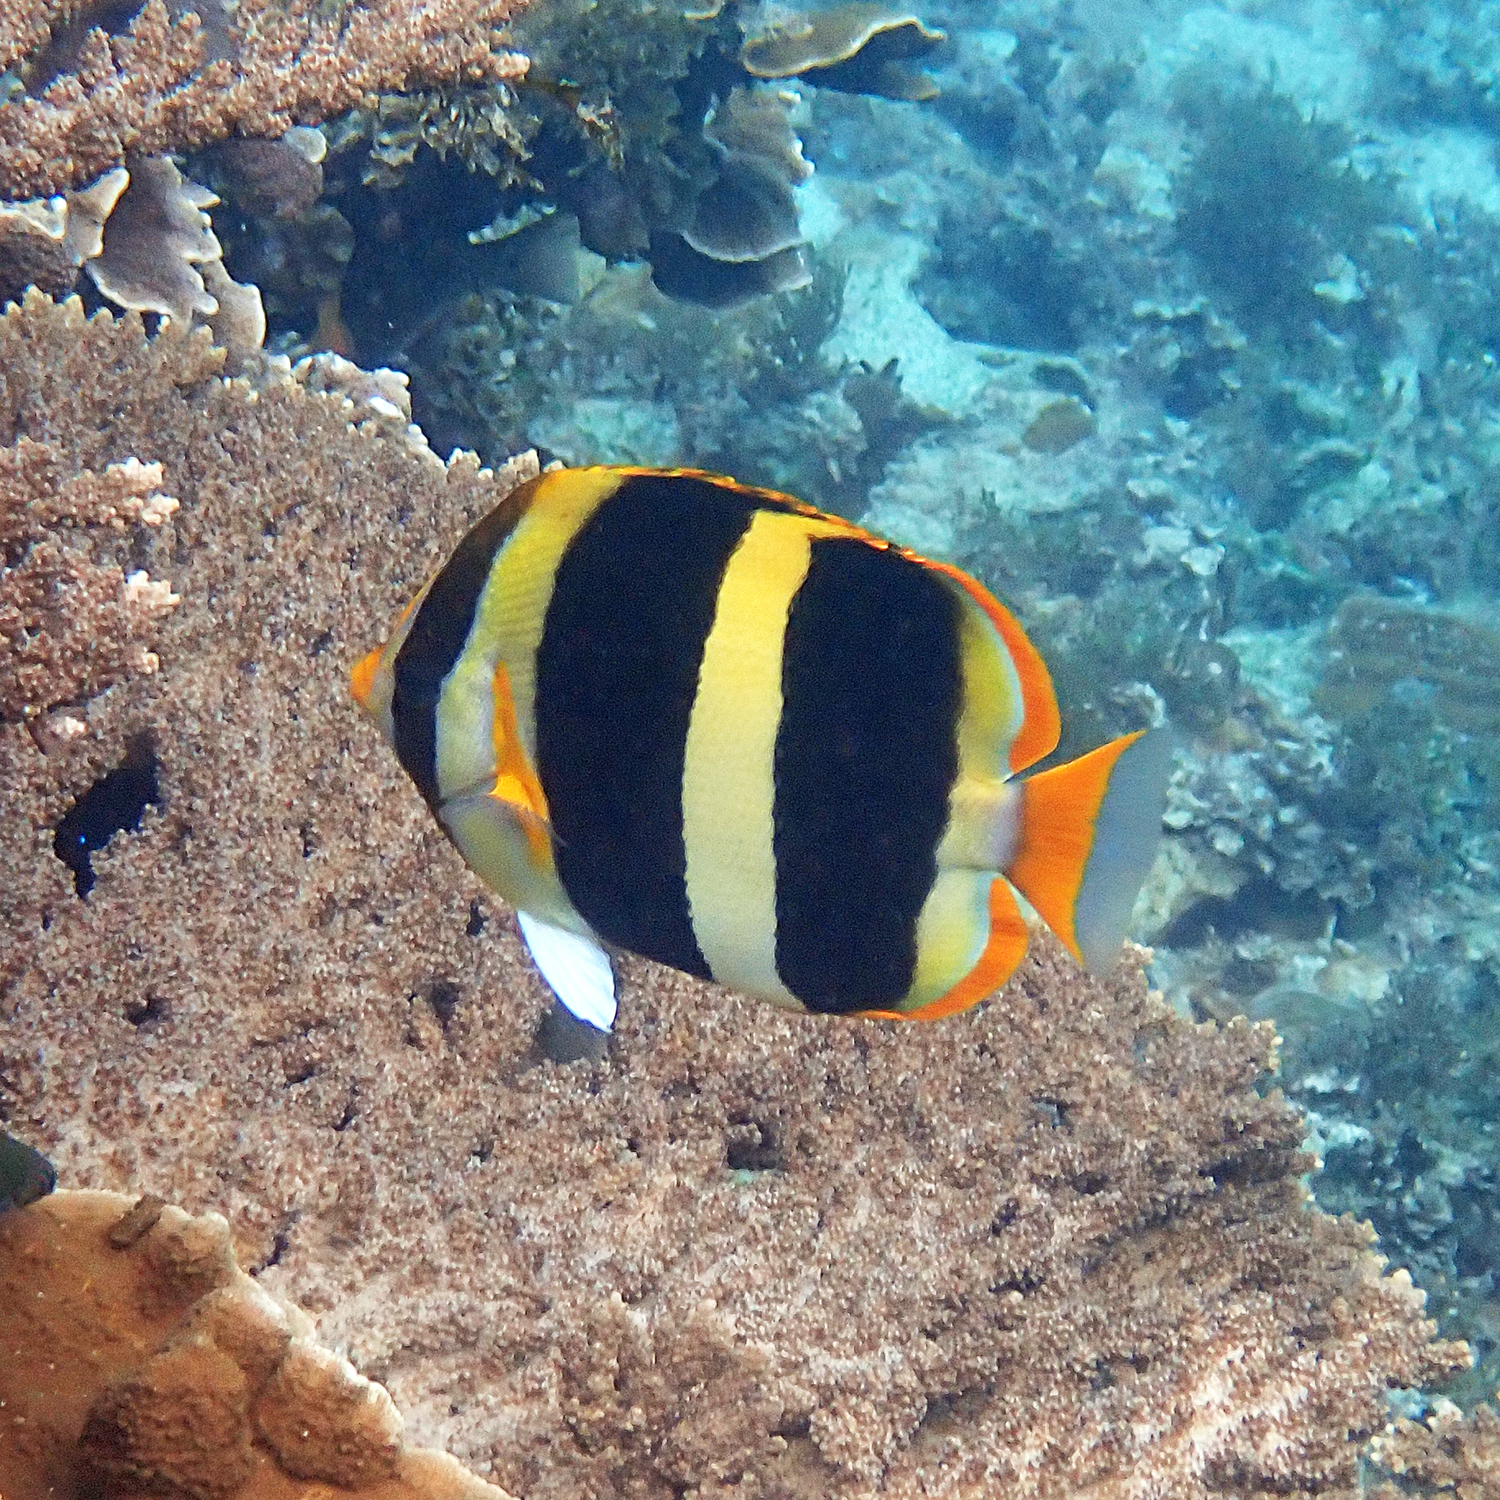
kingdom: Animalia
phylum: Chordata
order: Perciformes
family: Chaetodontidae
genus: Chaetodon
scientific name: Chaetodon tricinctus
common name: Three-striped butterflyfish
